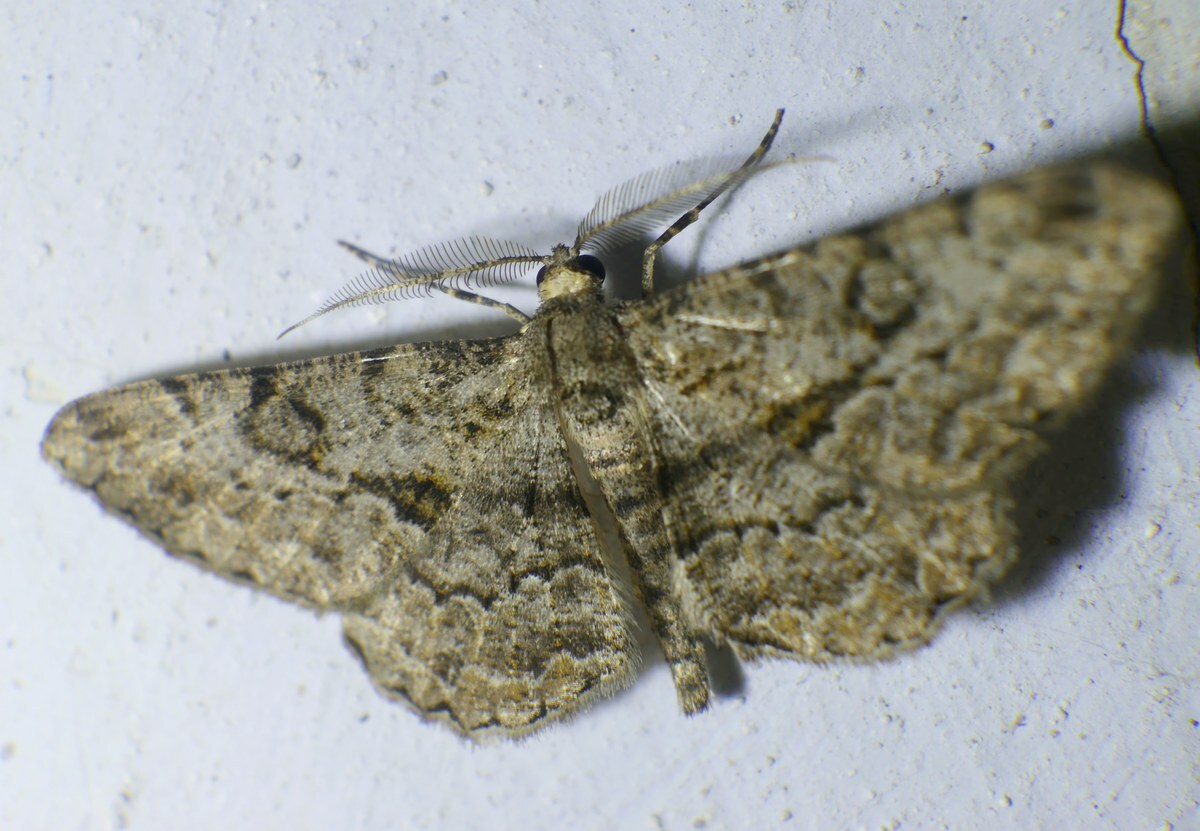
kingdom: Animalia
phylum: Arthropoda
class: Insecta
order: Lepidoptera
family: Geometridae
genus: Peribatodes
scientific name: Peribatodes rhomboidaria
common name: Willow beauty
